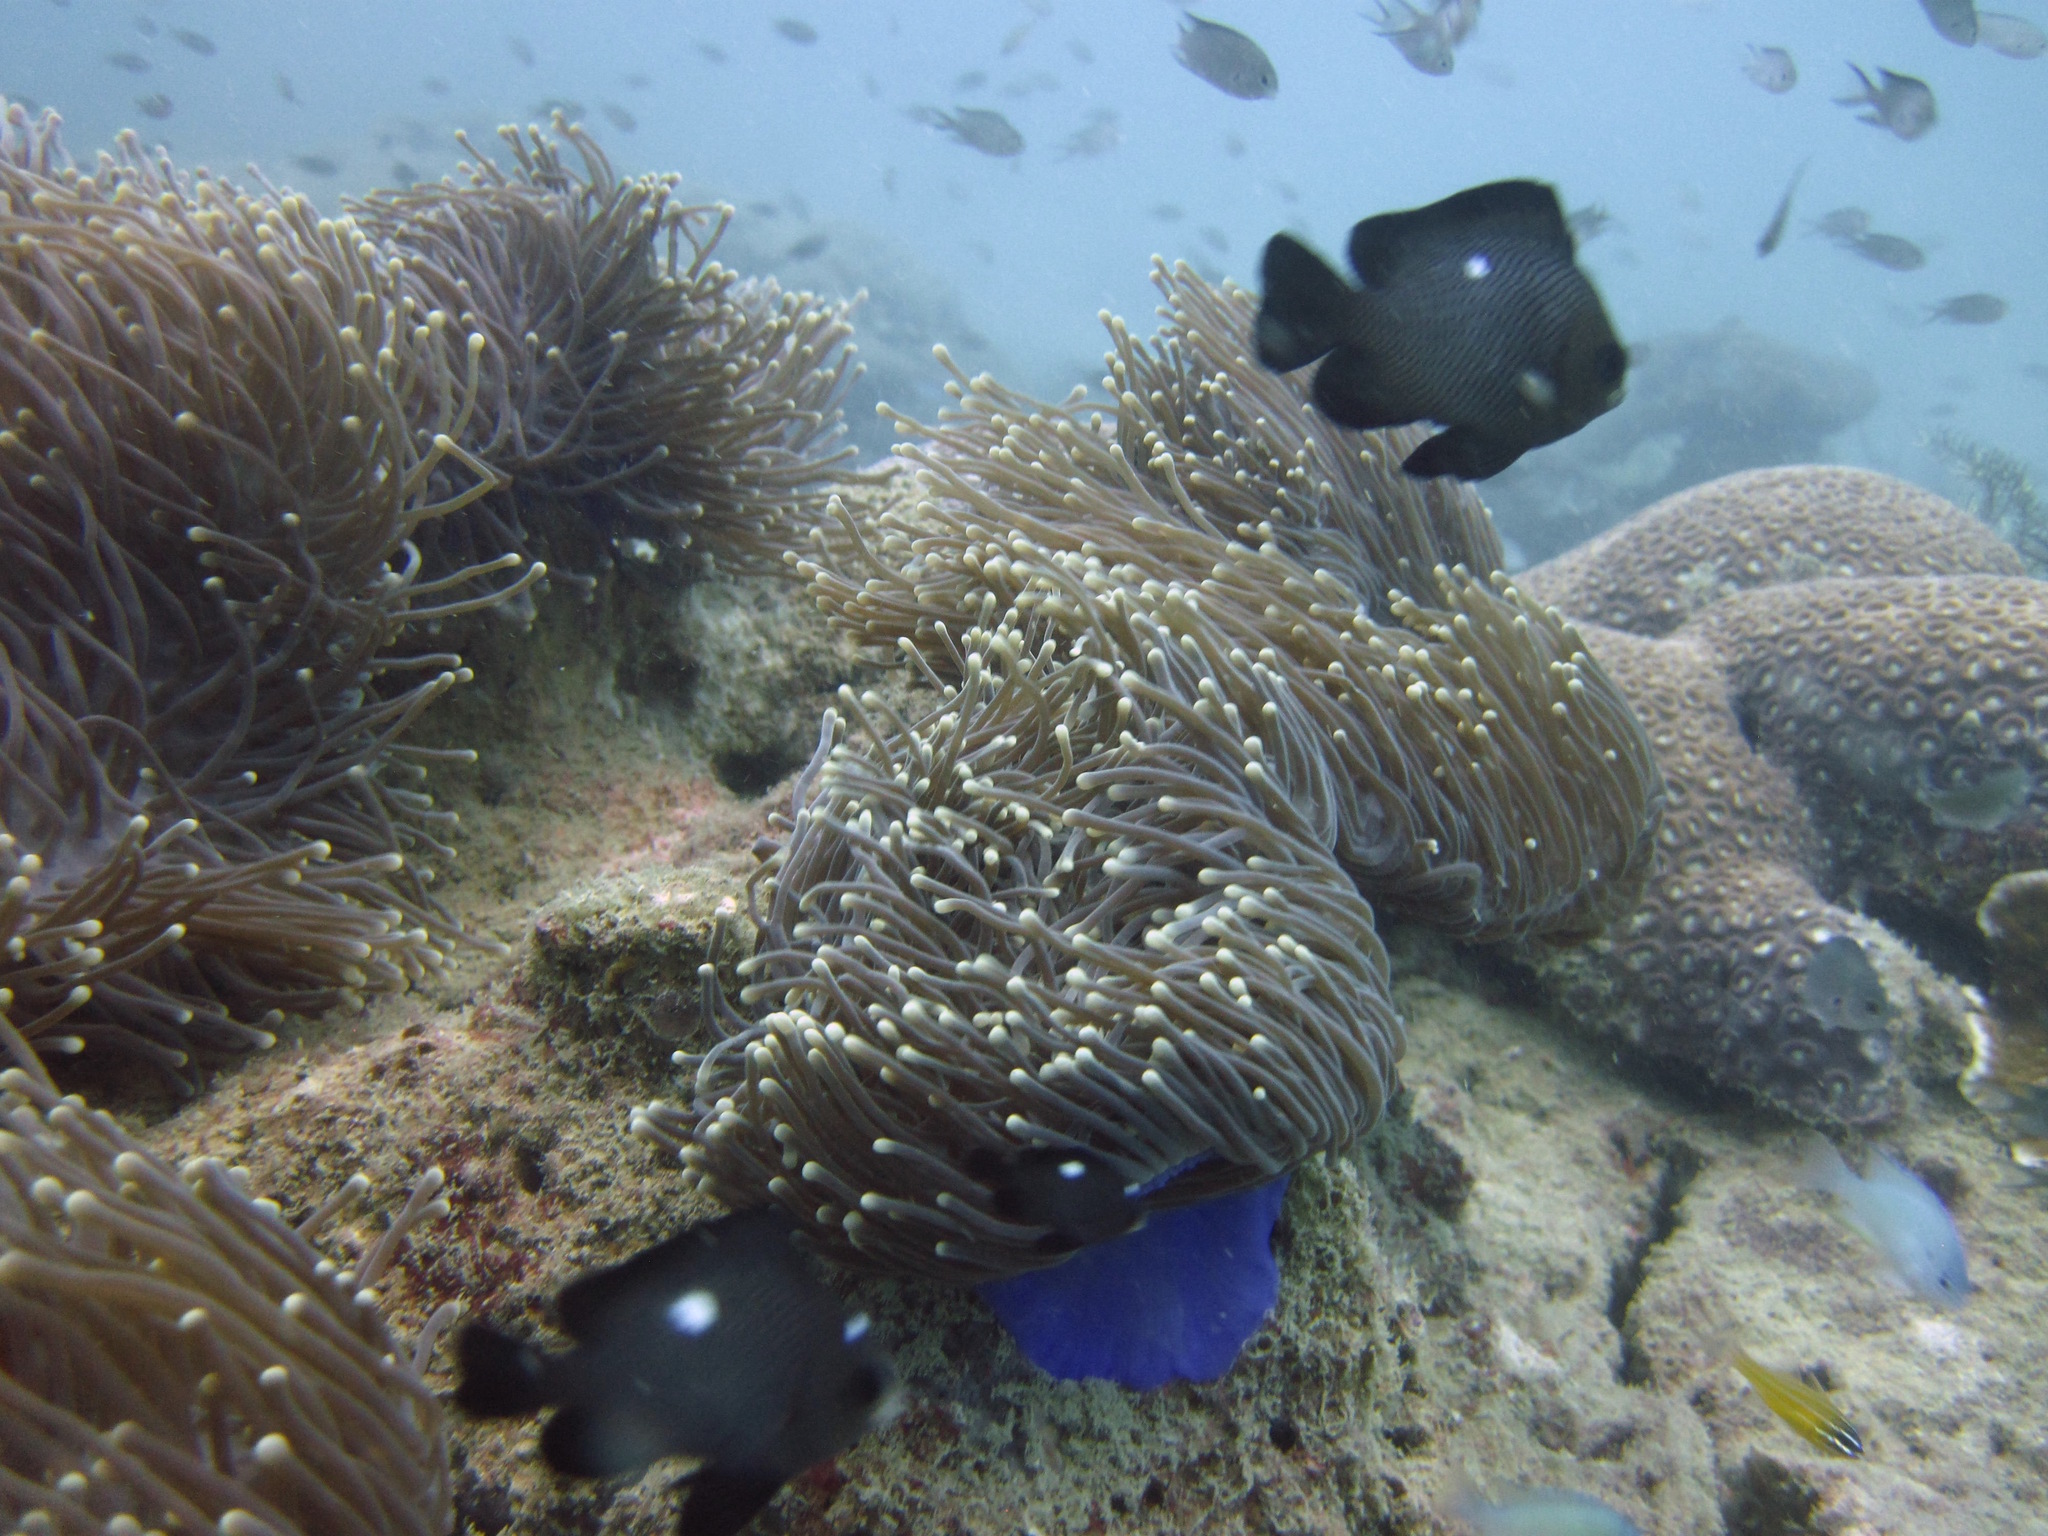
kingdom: Animalia
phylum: Cnidaria
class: Anthozoa
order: Actiniaria
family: Stichodactylidae
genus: Radianthus
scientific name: Radianthus magnifica
